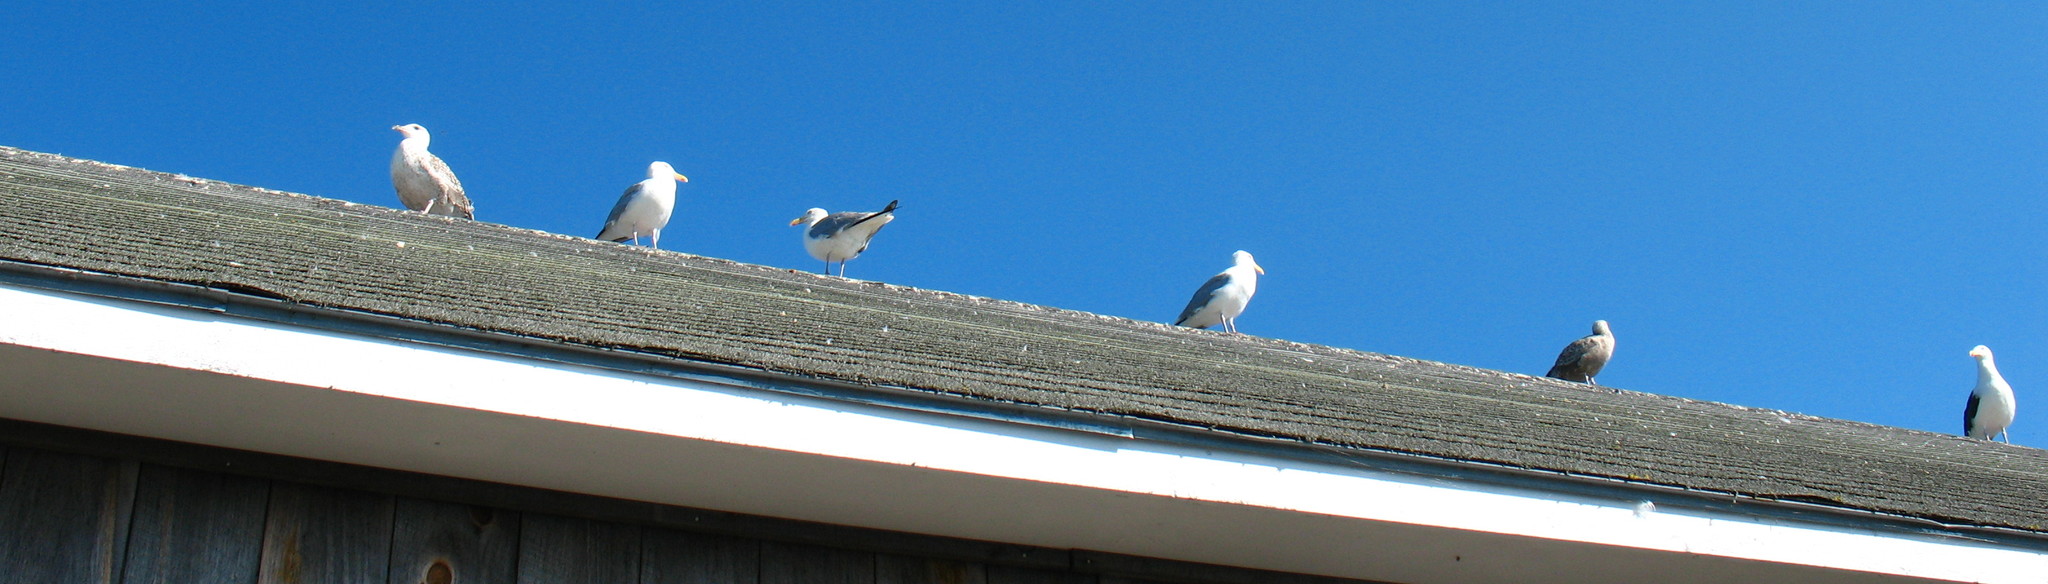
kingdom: Animalia
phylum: Chordata
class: Aves
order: Charadriiformes
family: Laridae
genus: Larus
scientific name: Larus marinus
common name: Great black-backed gull
